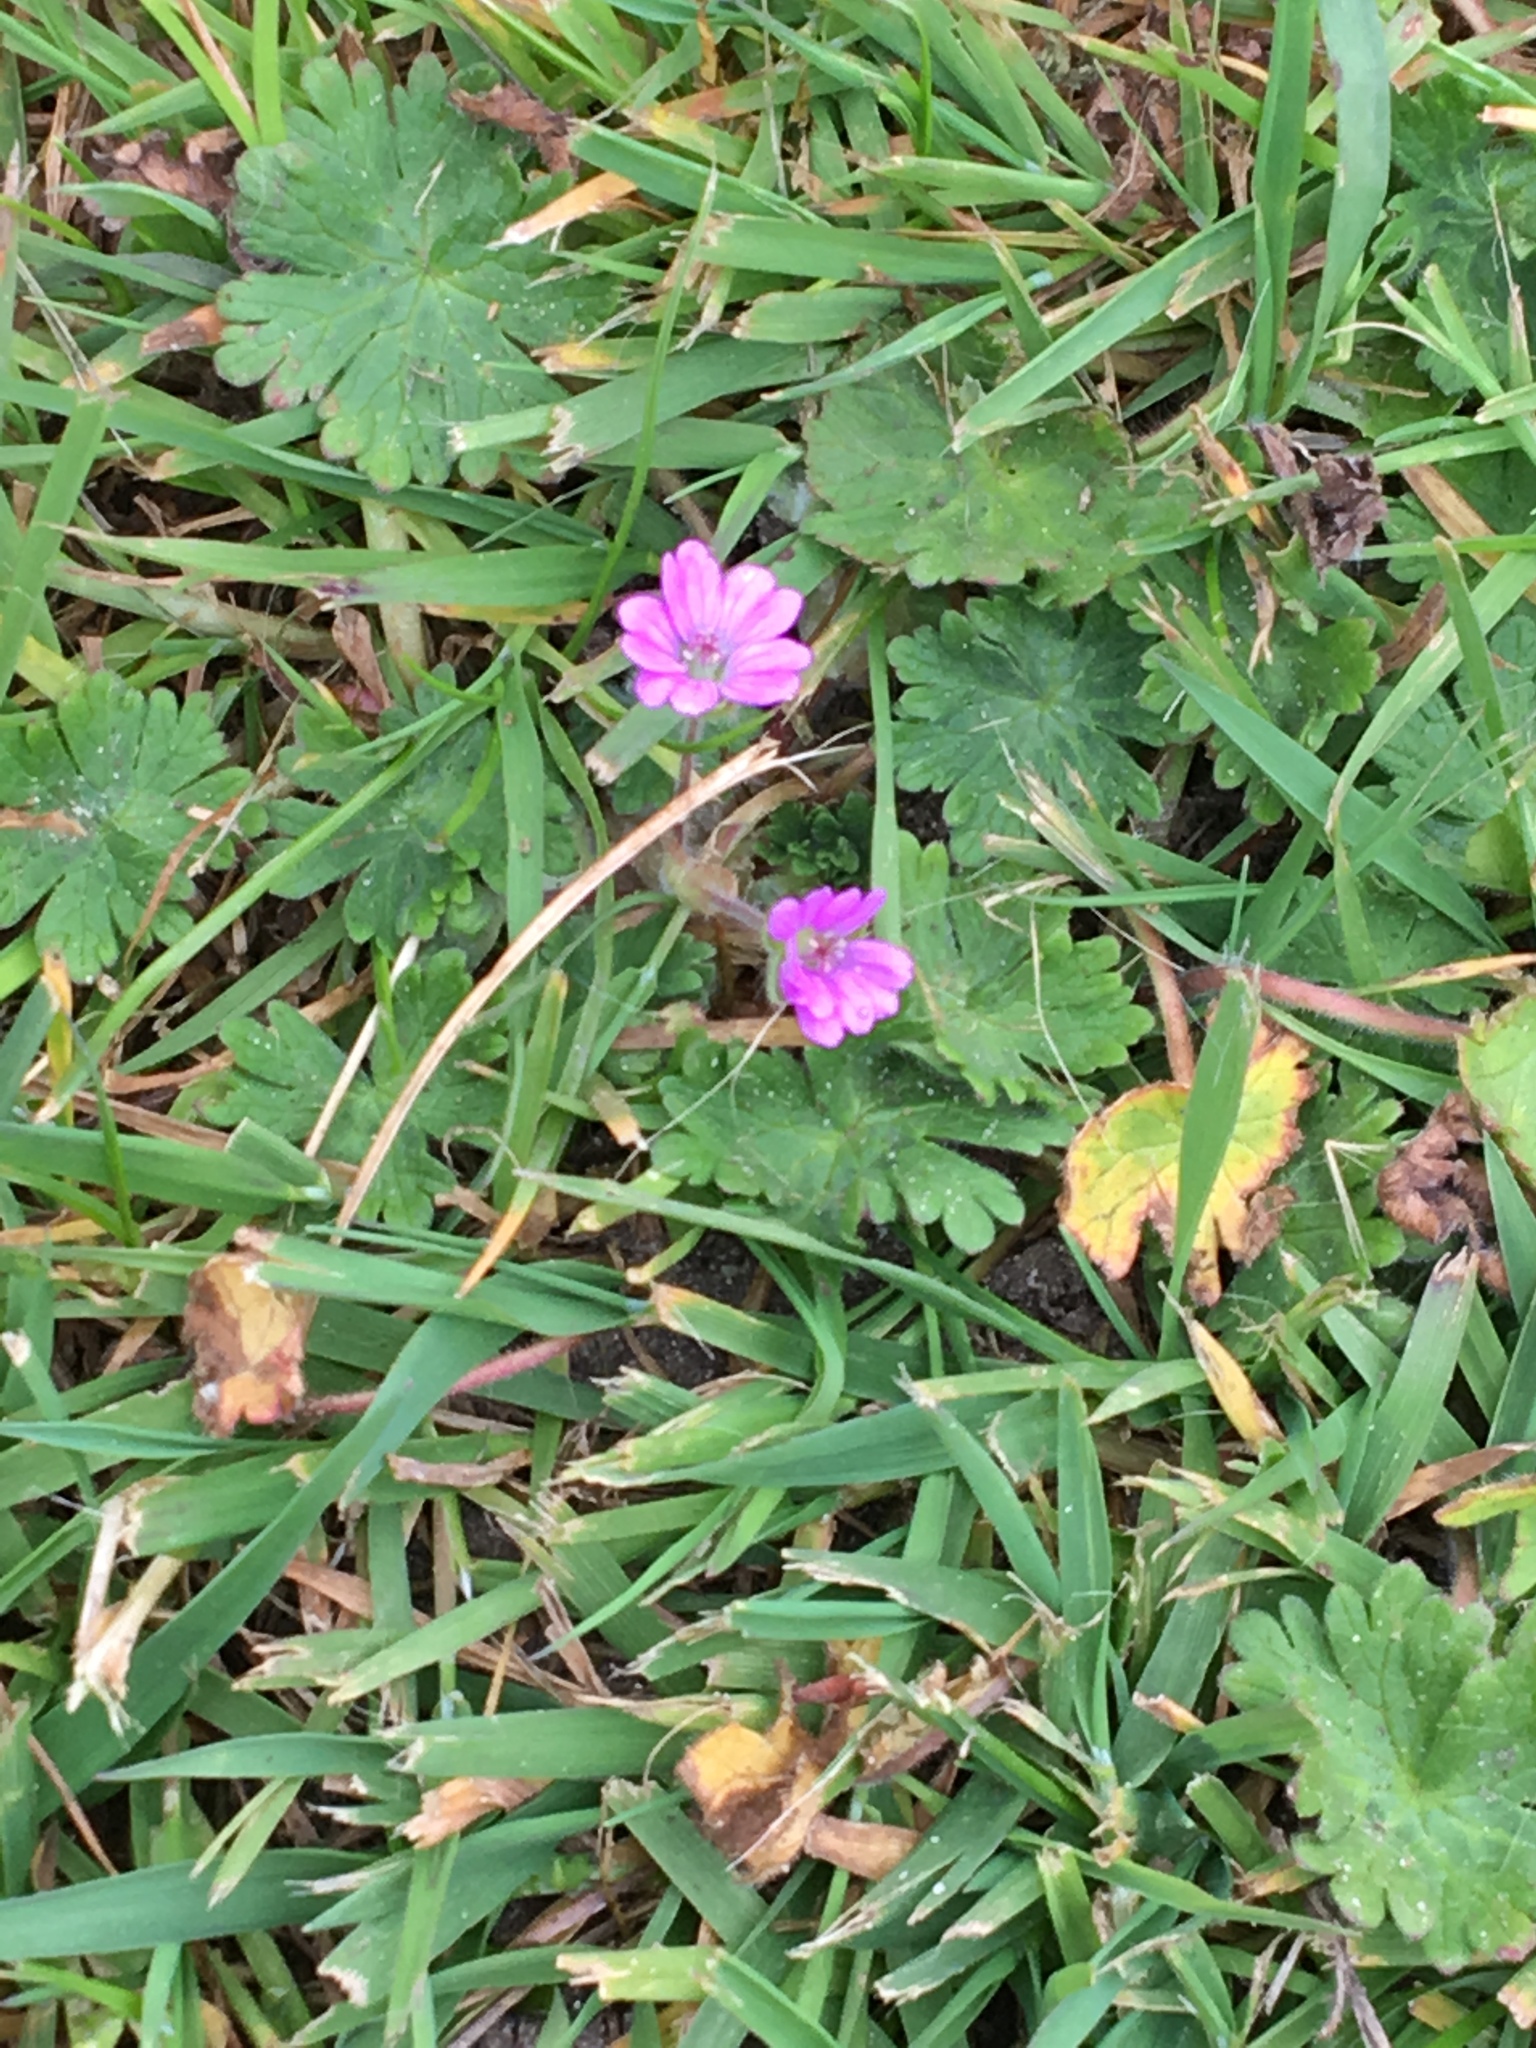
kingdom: Plantae
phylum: Tracheophyta
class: Magnoliopsida
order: Geraniales
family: Geraniaceae
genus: Geranium
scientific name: Geranium molle
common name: Dove's-foot crane's-bill
